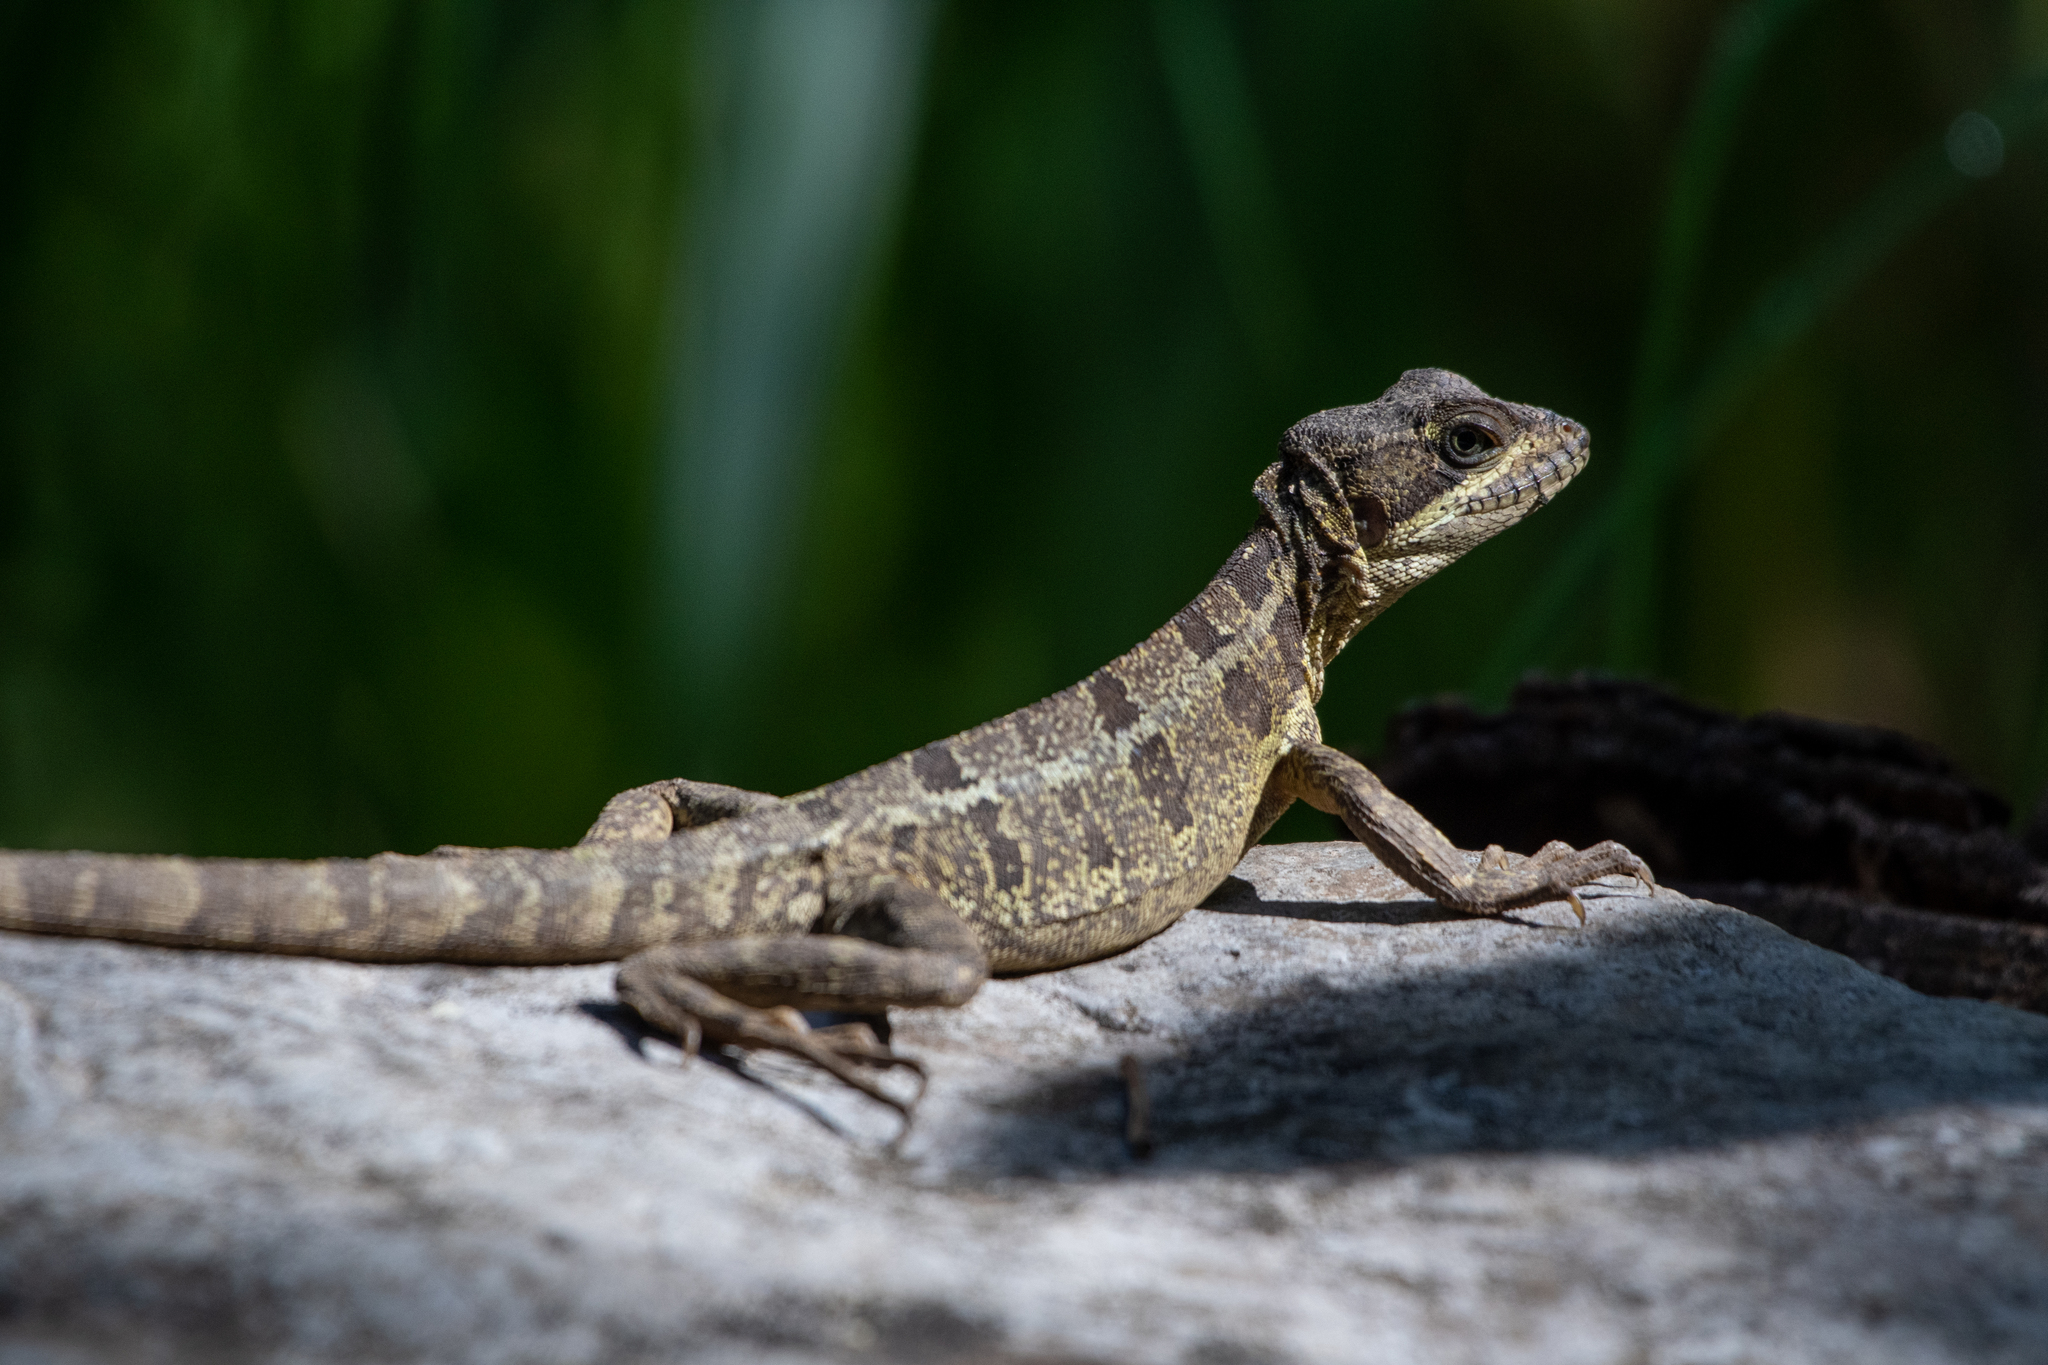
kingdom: Animalia
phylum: Chordata
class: Squamata
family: Corytophanidae
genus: Basiliscus
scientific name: Basiliscus vittatus
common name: Brown basilisk
